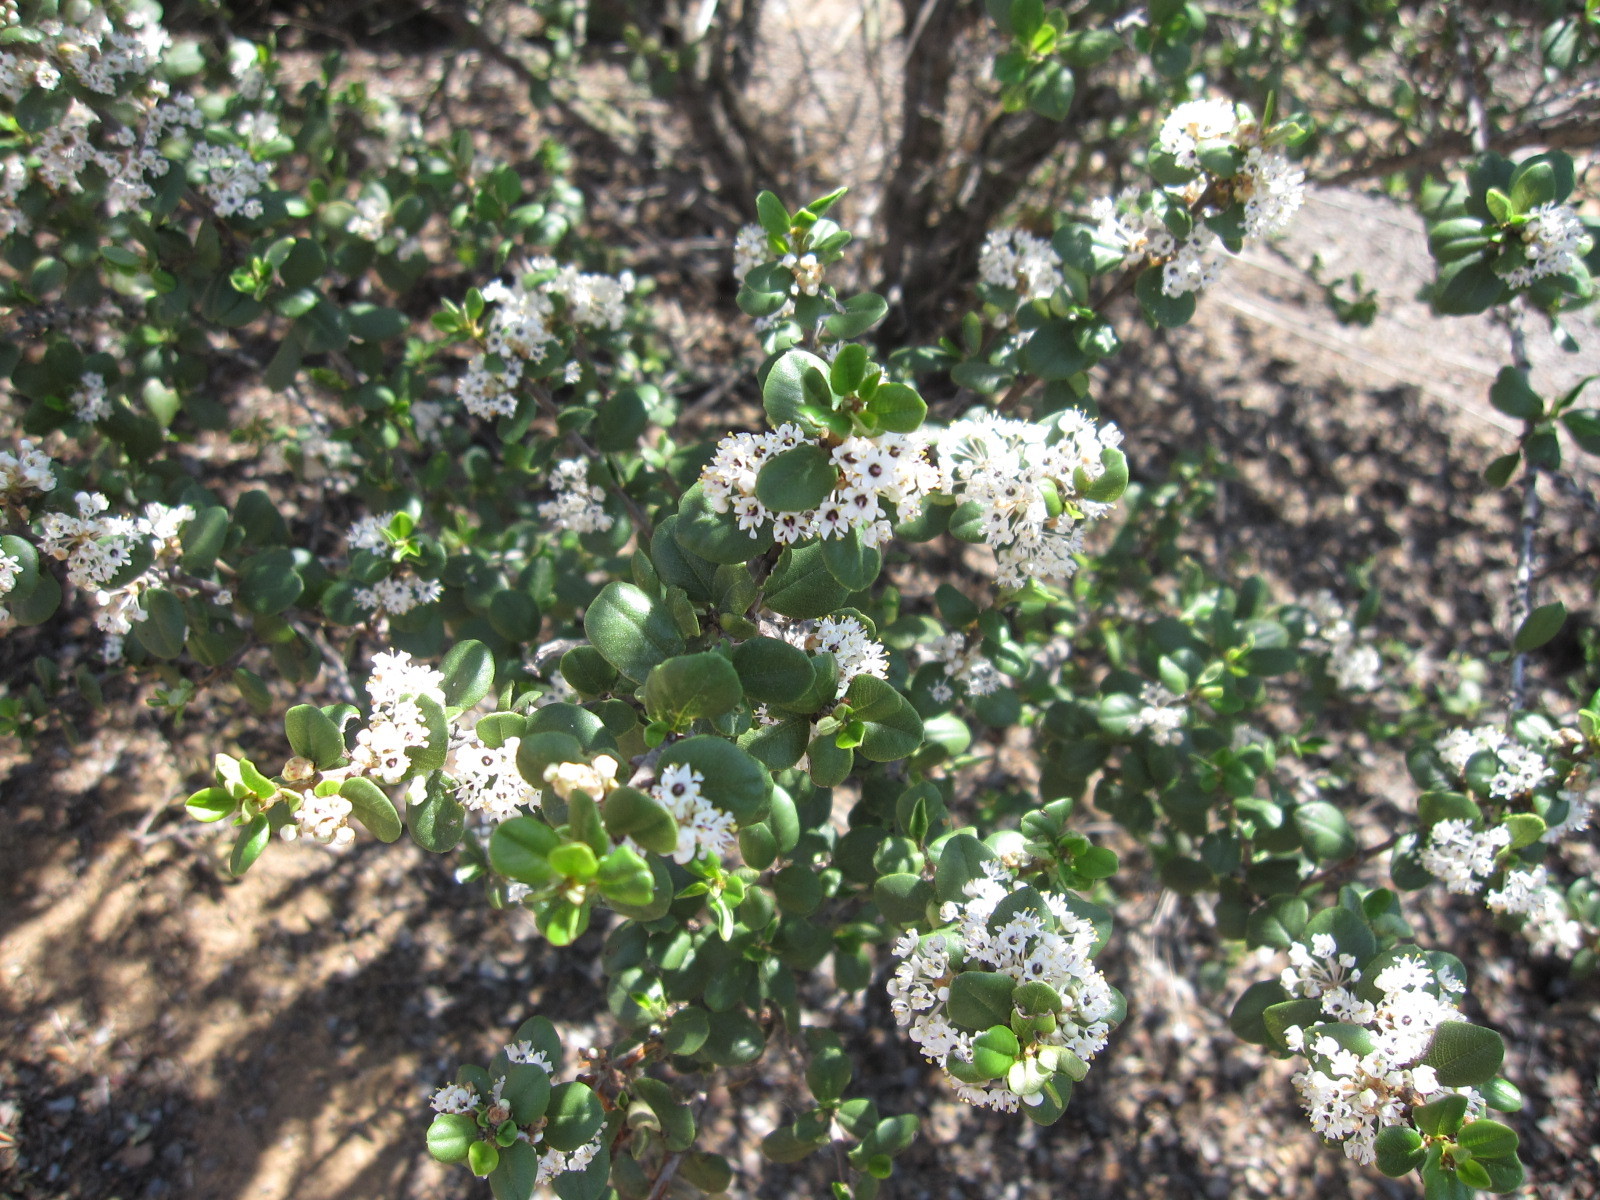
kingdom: Plantae
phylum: Tracheophyta
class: Magnoliopsida
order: Rosales
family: Rhamnaceae
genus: Ceanothus
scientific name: Ceanothus verrucosus
